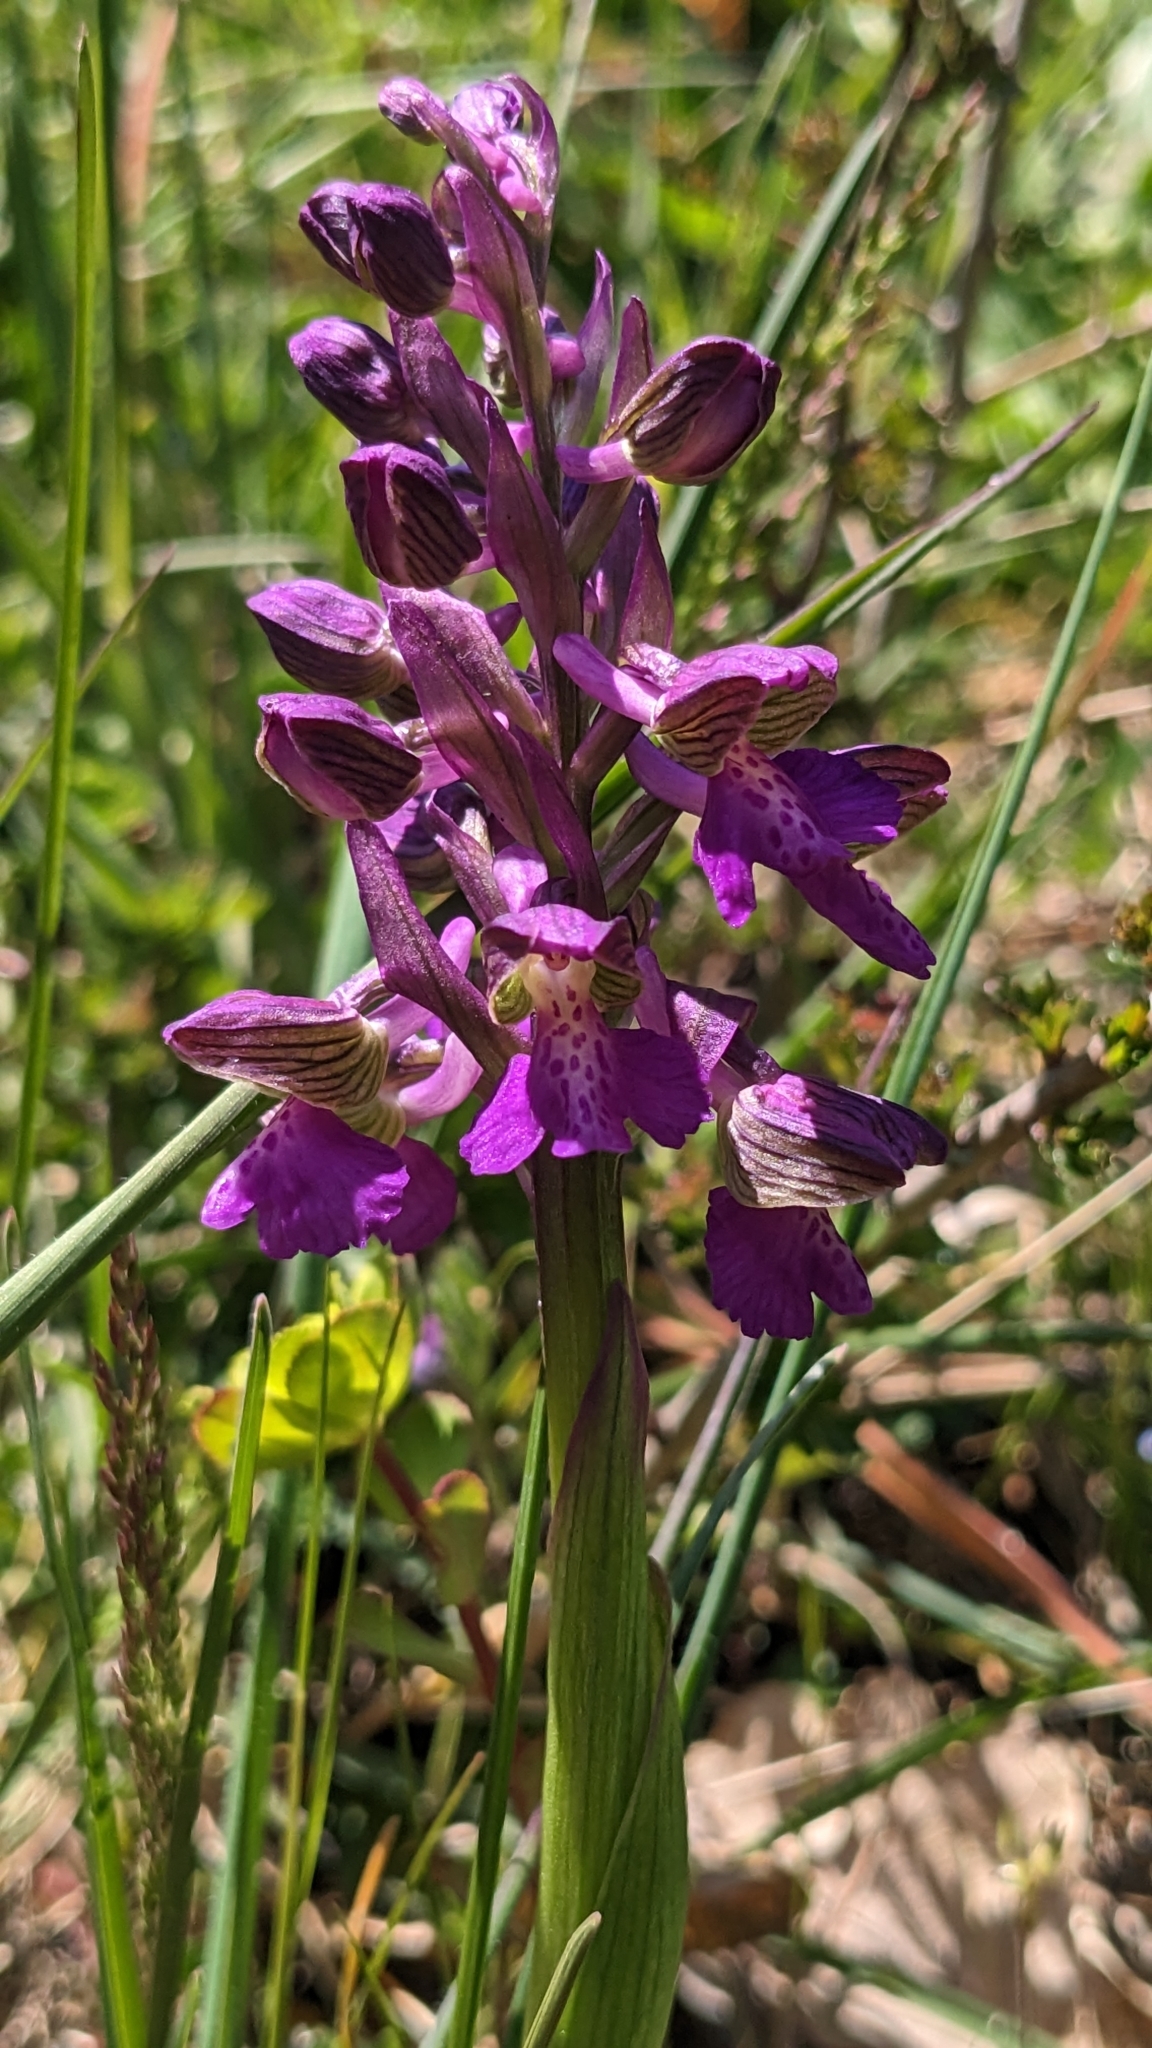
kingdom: Plantae
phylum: Tracheophyta
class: Liliopsida
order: Asparagales
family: Orchidaceae
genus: Anacamptis
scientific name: Anacamptis morio
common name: Green-winged orchid
